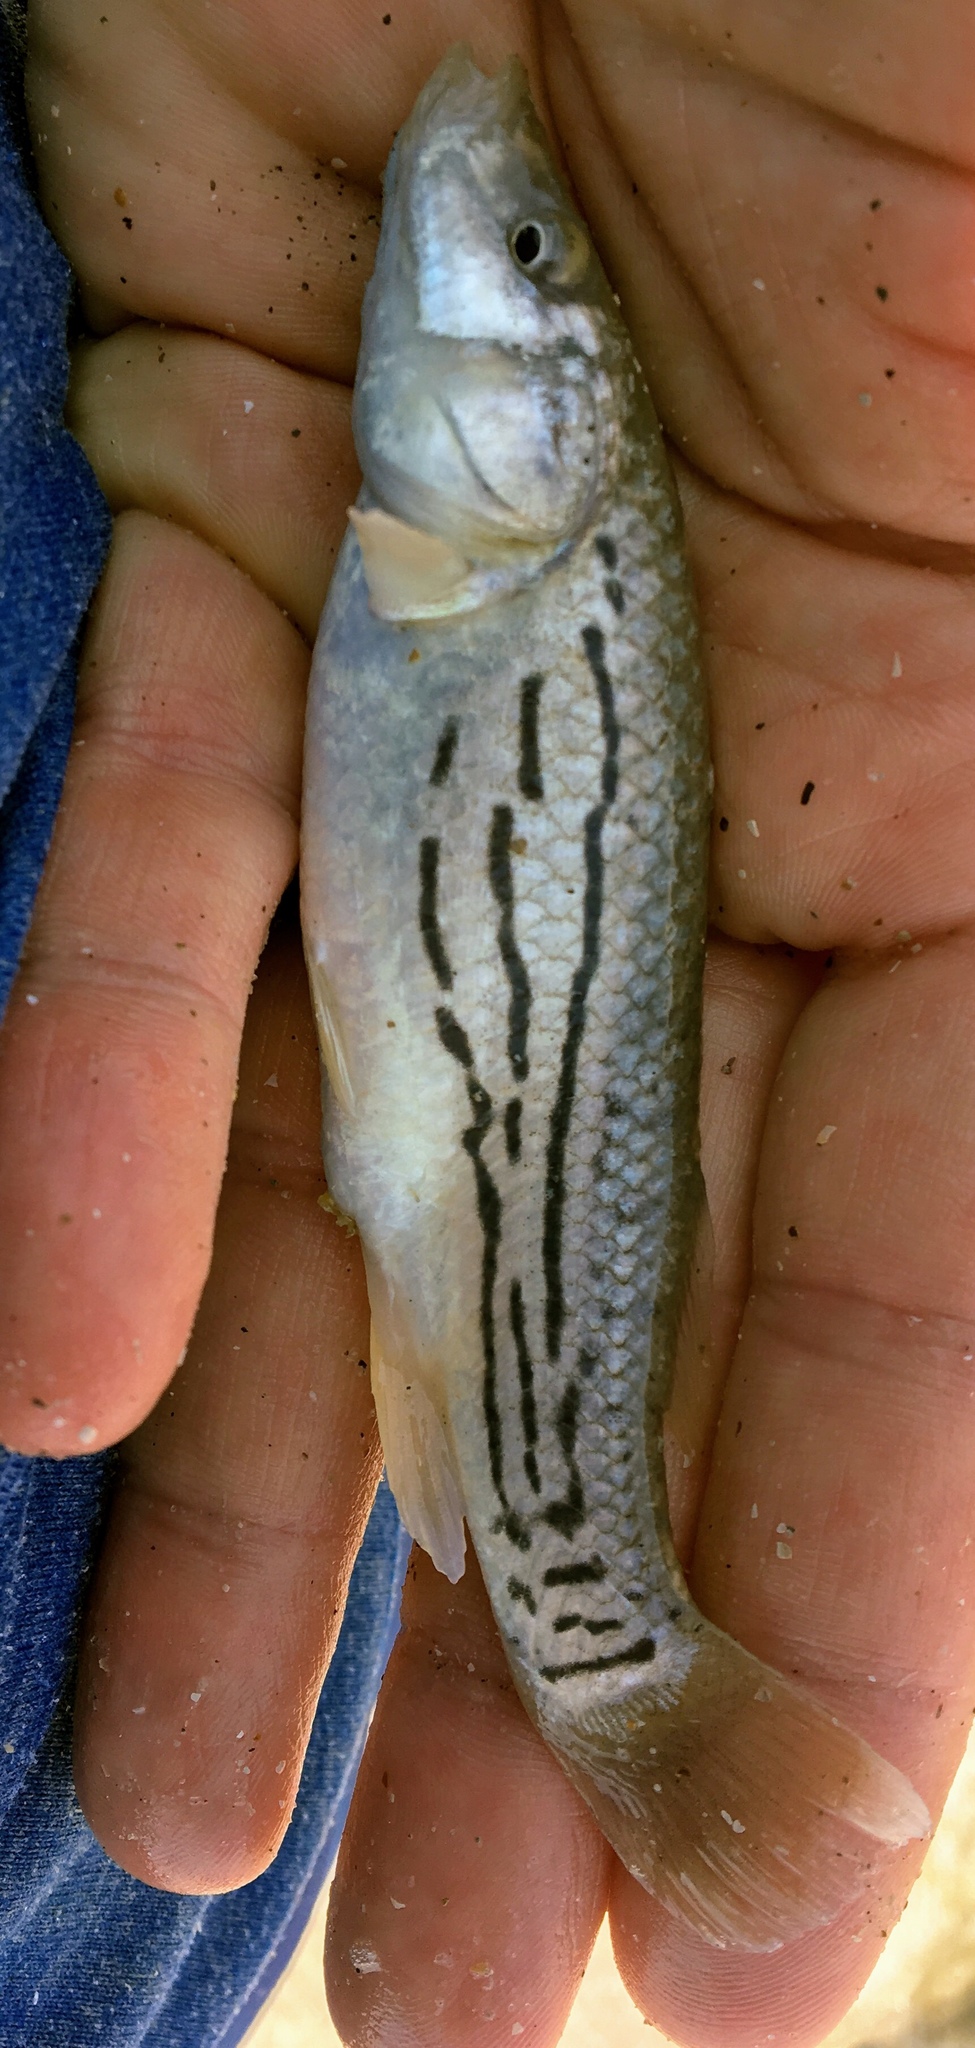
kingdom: Animalia
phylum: Chordata
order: Cyprinodontiformes
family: Fundulidae
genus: Fundulus
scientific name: Fundulus majalis
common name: Striped killifish
